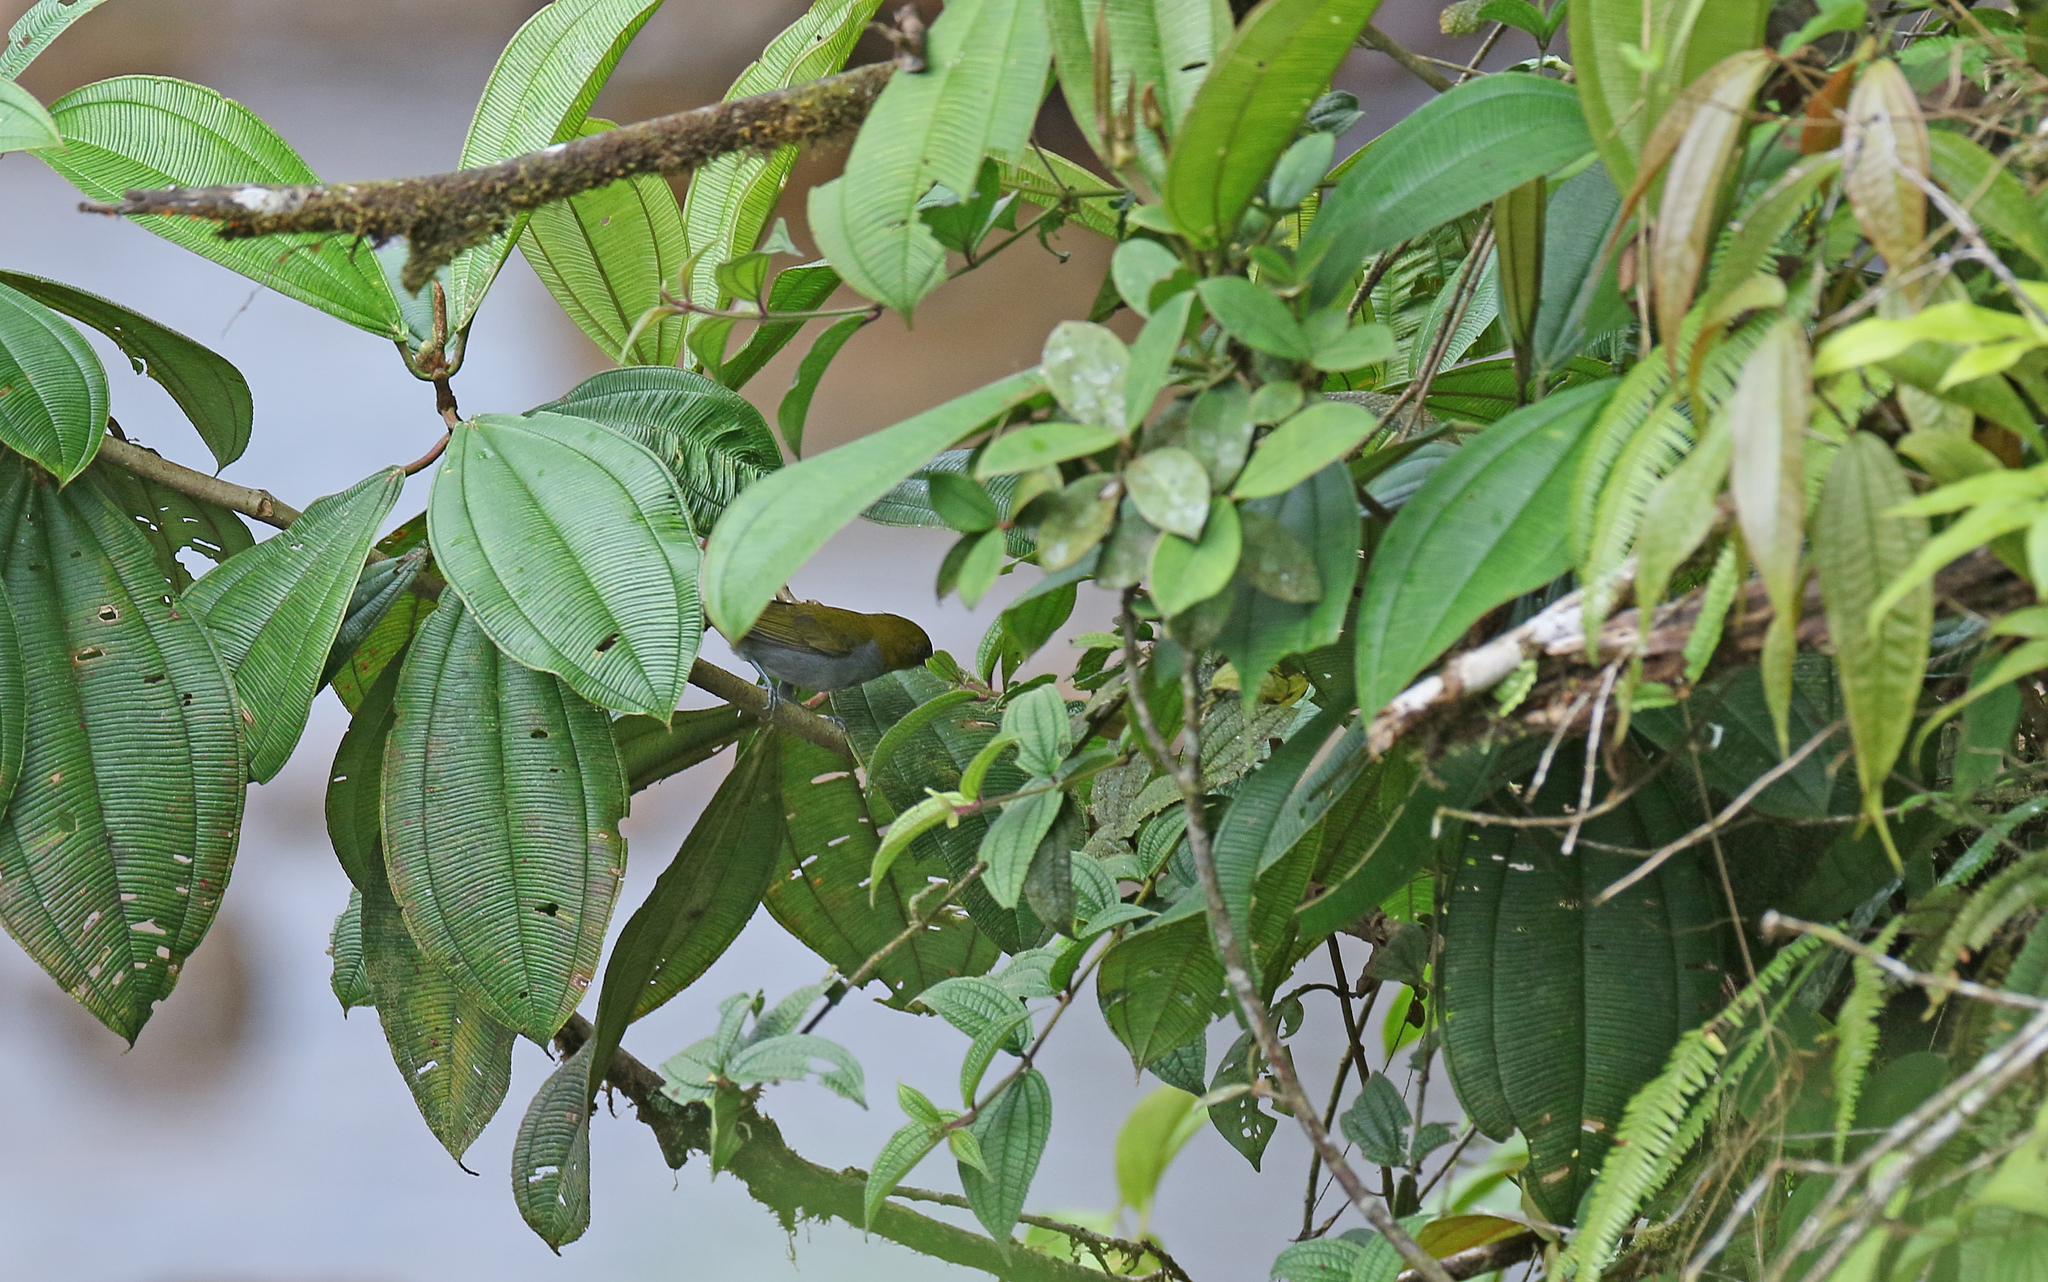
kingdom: Animalia
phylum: Chordata
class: Aves
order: Passeriformes
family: Passerellidae
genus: Chlorospingus
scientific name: Chlorospingus flavigularis
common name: Yellow-throated bush-tanager
